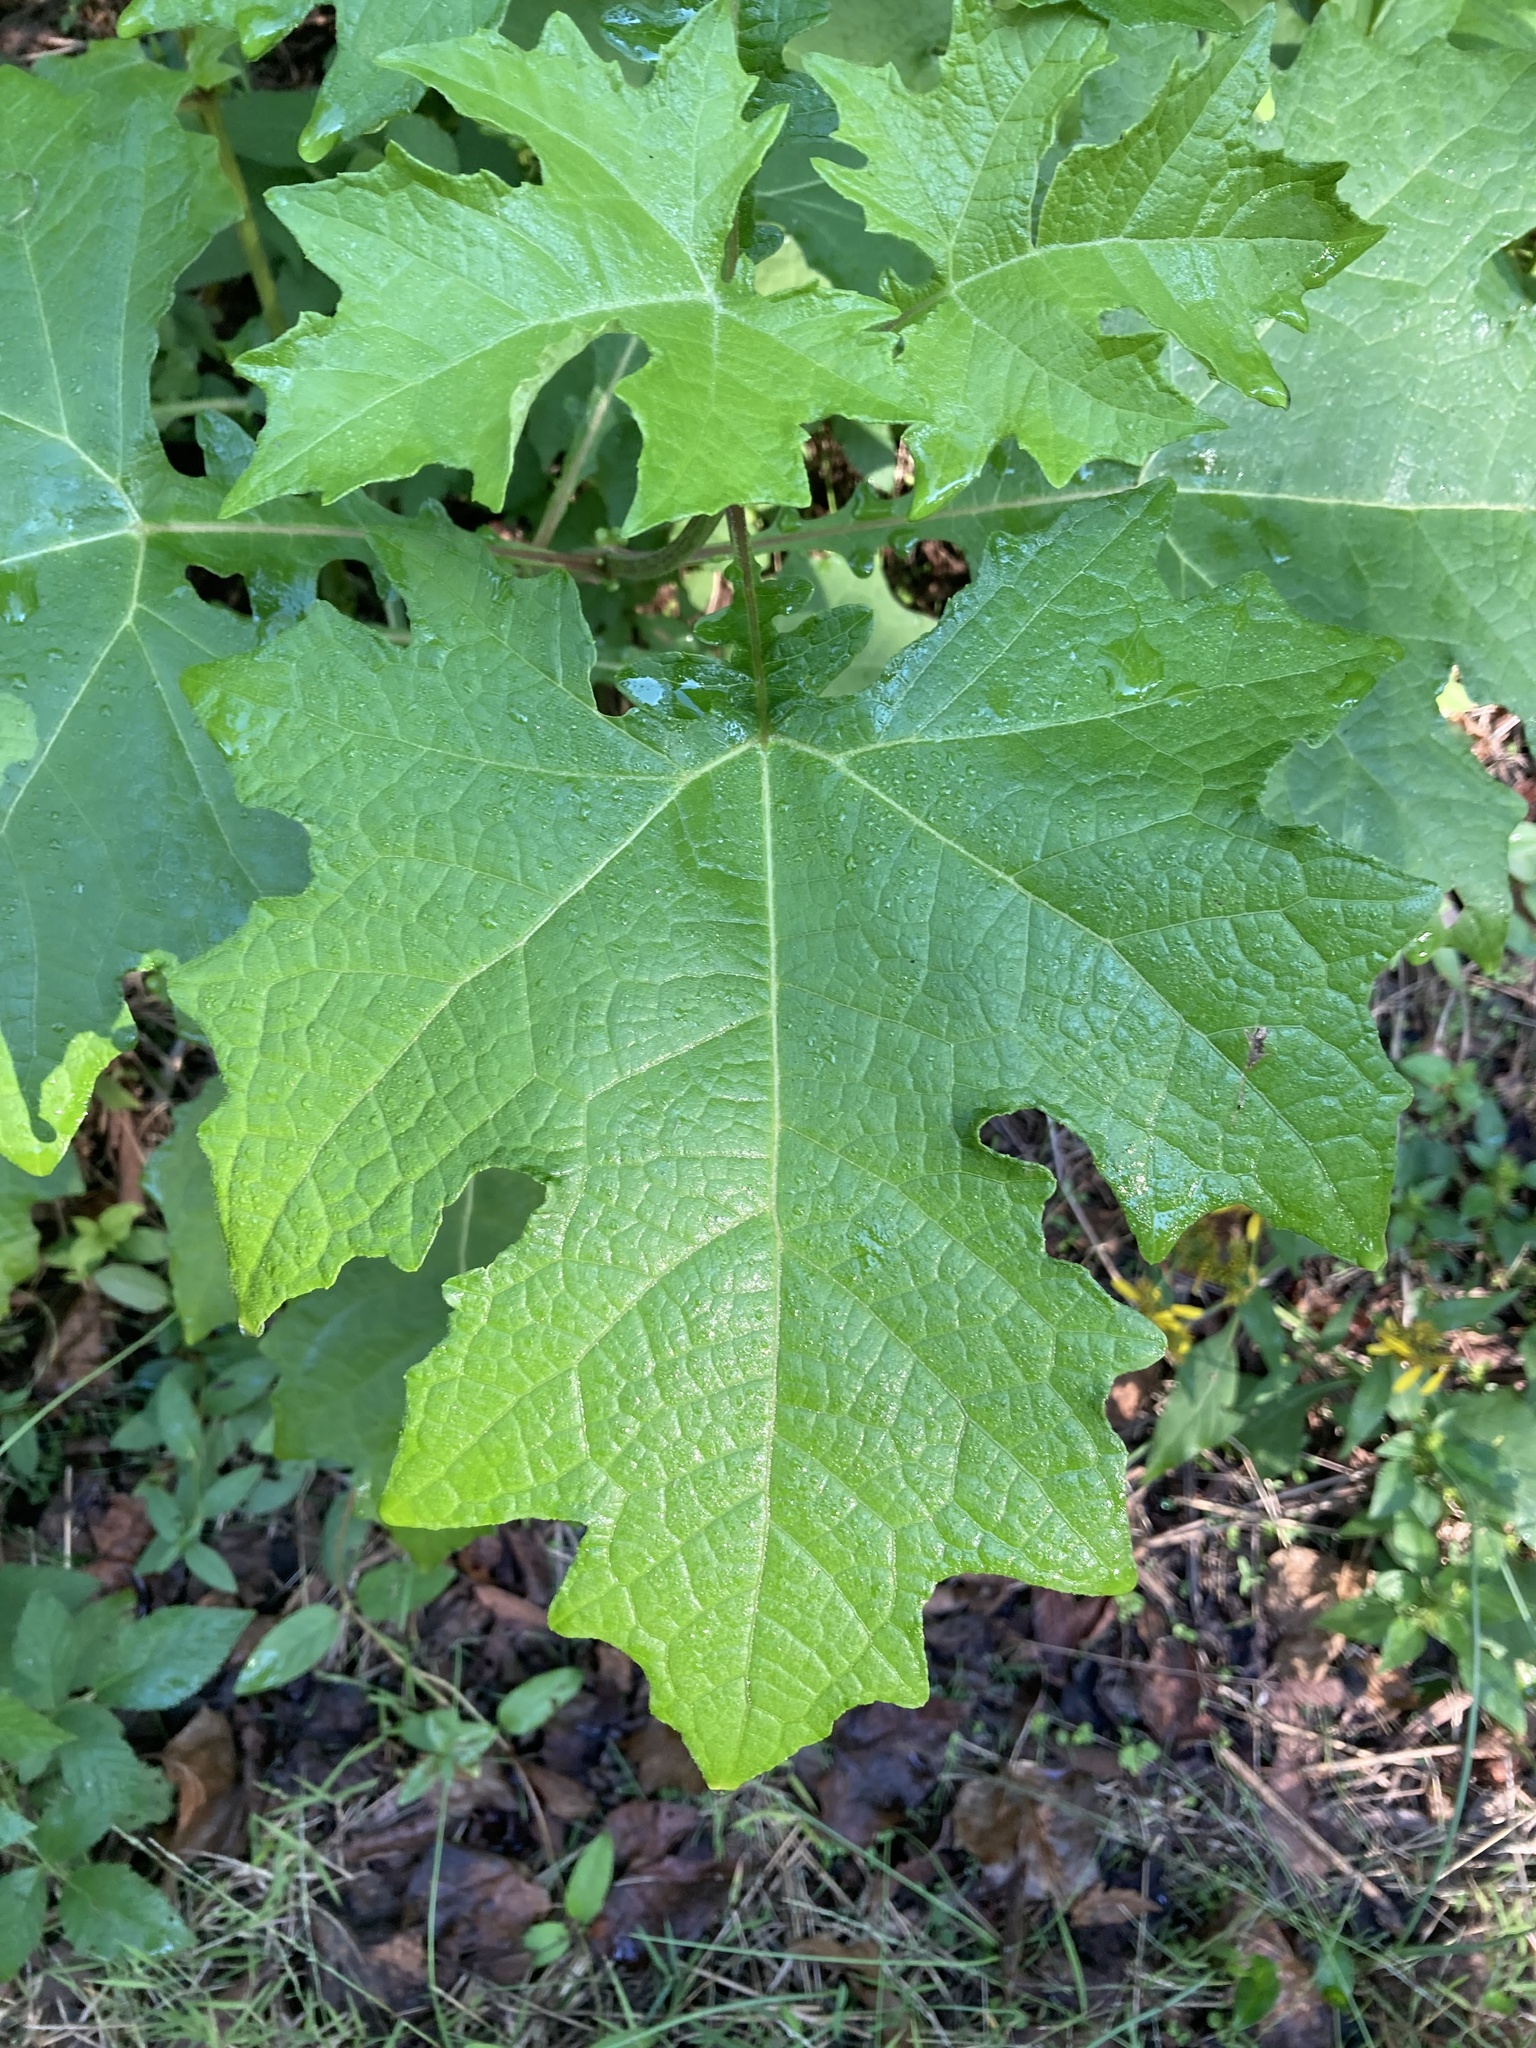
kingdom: Plantae
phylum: Tracheophyta
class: Magnoliopsida
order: Asterales
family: Asteraceae
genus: Smallanthus
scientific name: Smallanthus uvedalia
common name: Bear's-foot
